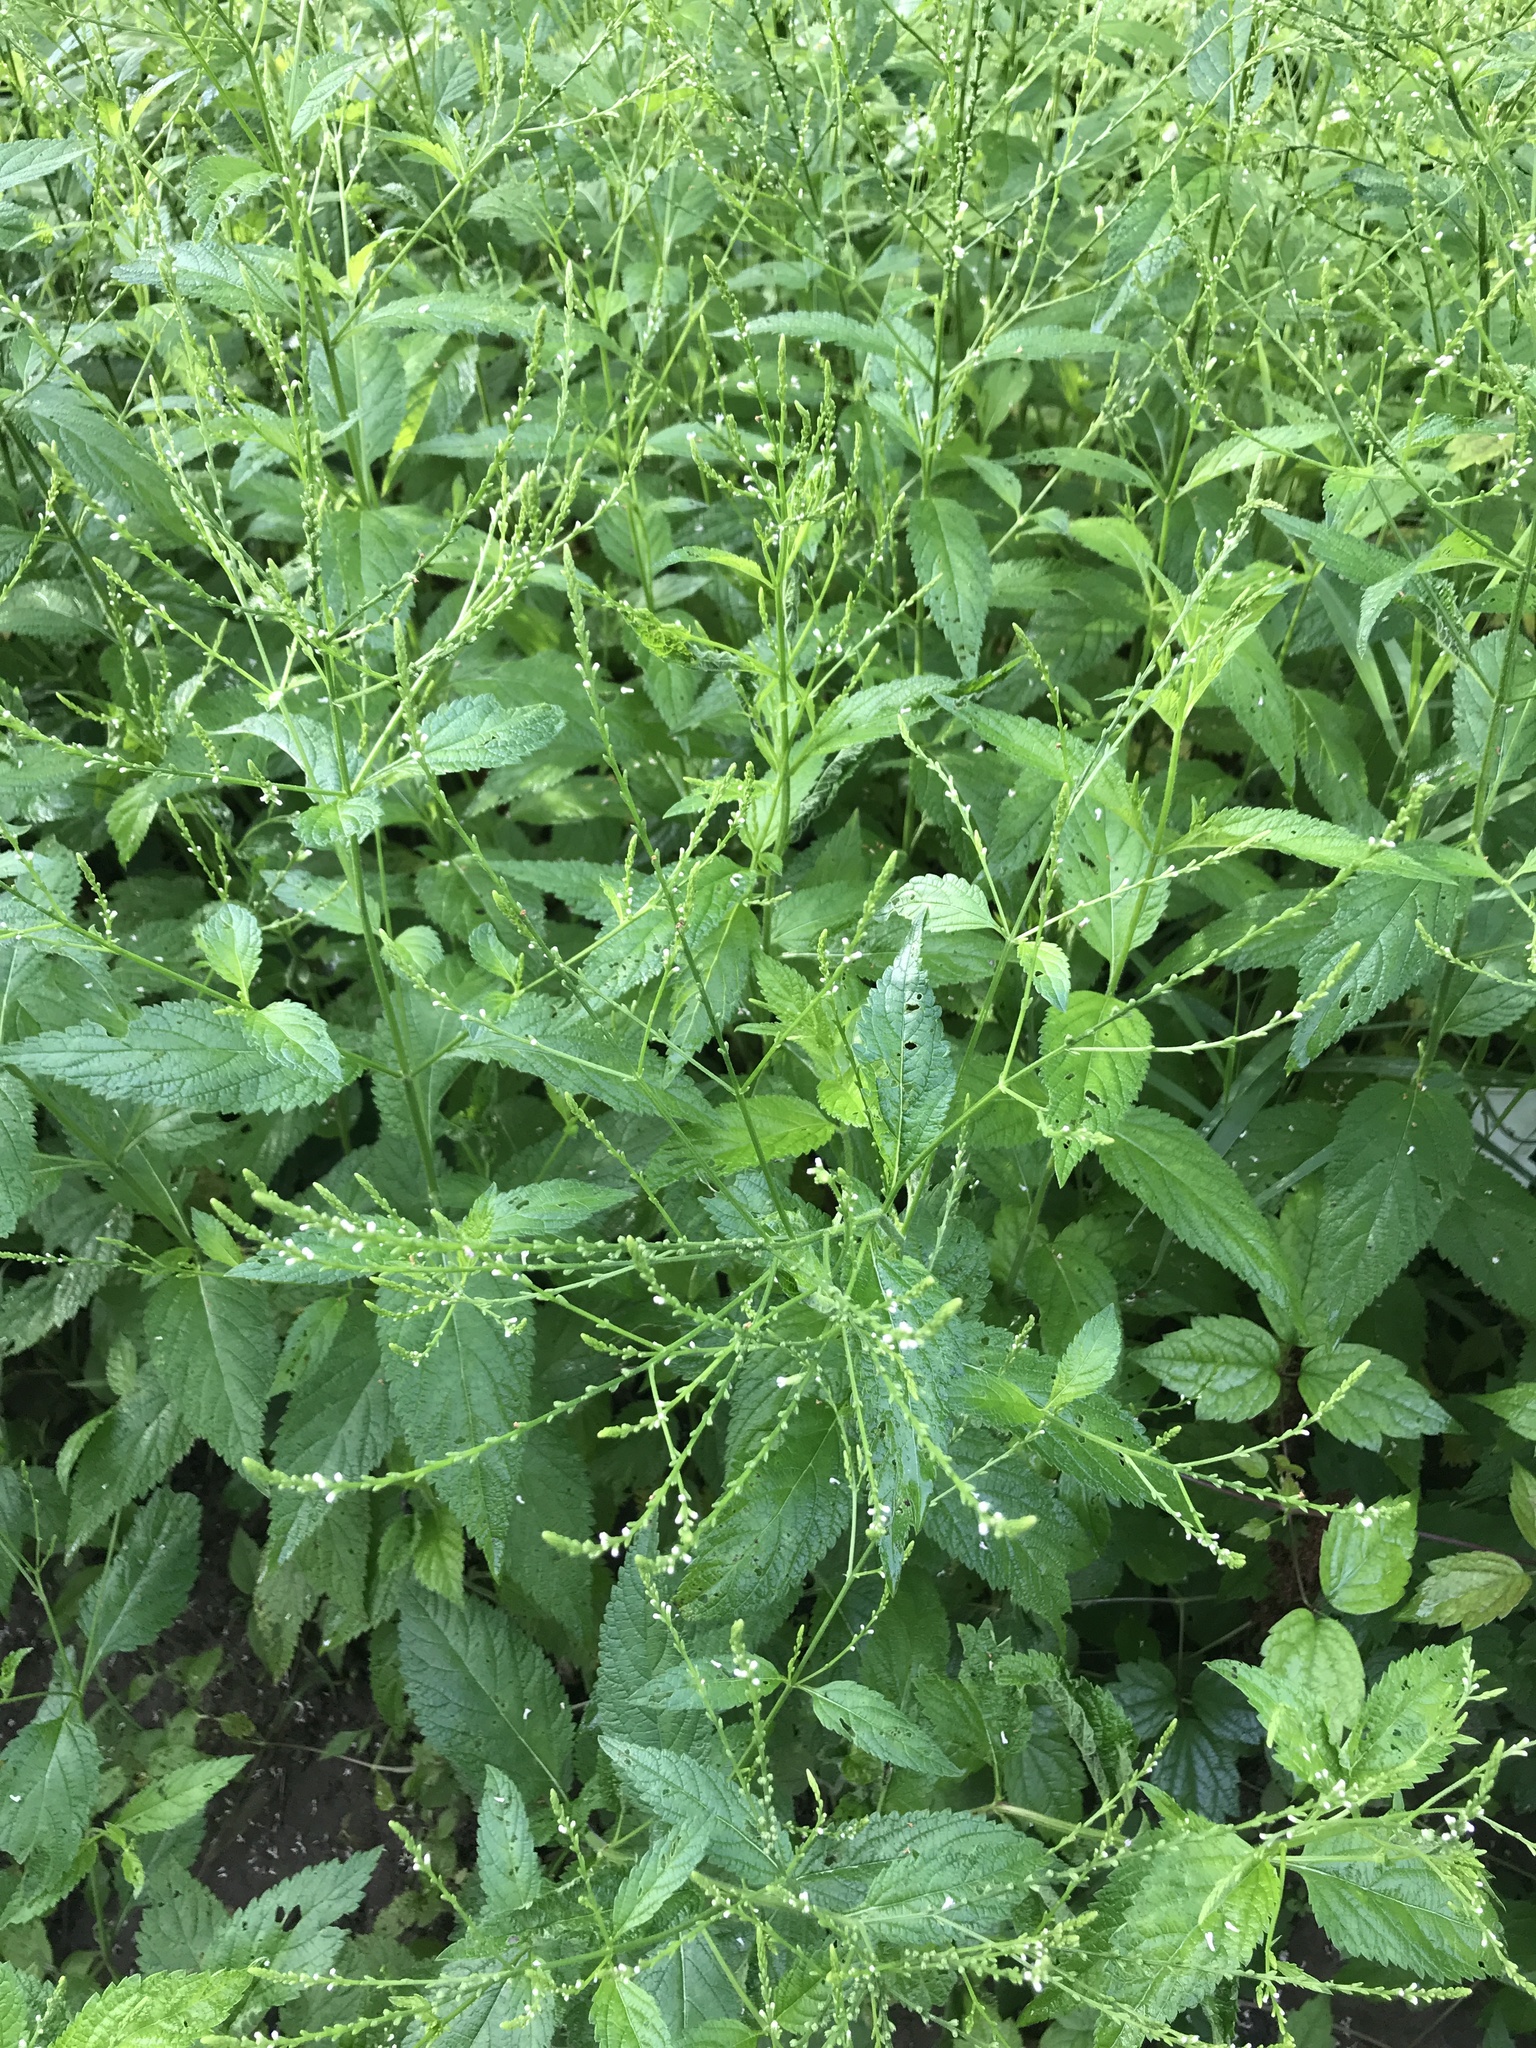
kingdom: Plantae
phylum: Tracheophyta
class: Magnoliopsida
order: Lamiales
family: Verbenaceae
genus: Verbena
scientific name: Verbena urticifolia
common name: Nettle-leaved vervain
